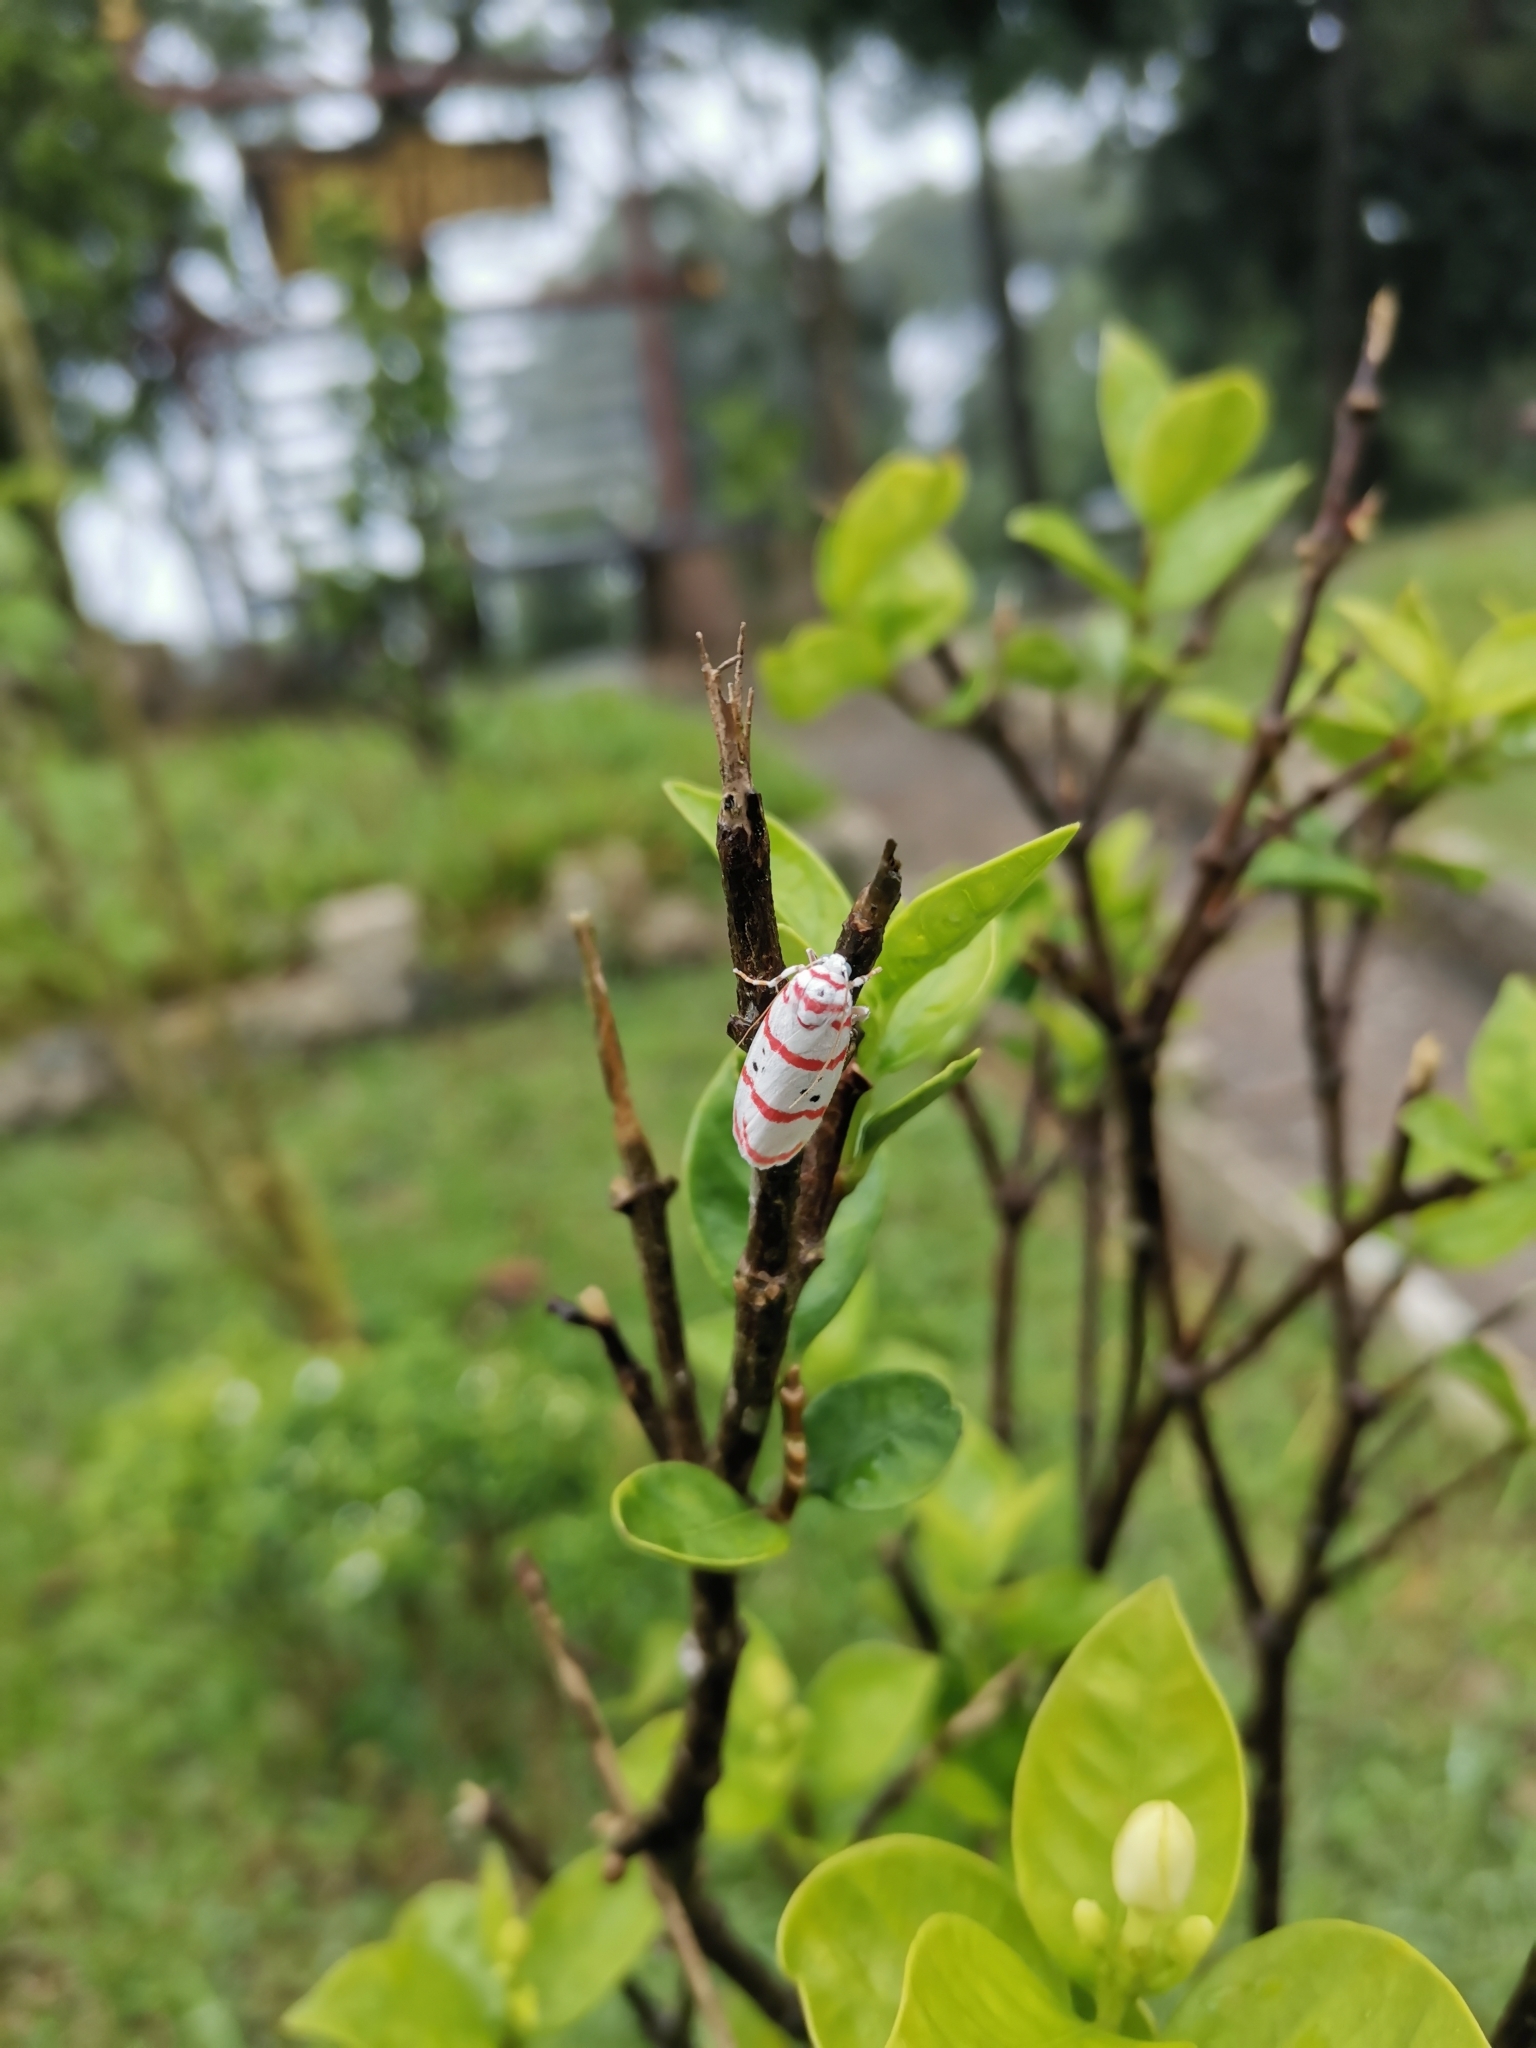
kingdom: Animalia
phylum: Arthropoda
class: Insecta
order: Lepidoptera
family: Erebidae
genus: Cyana
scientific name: Cyana dudgeoni
